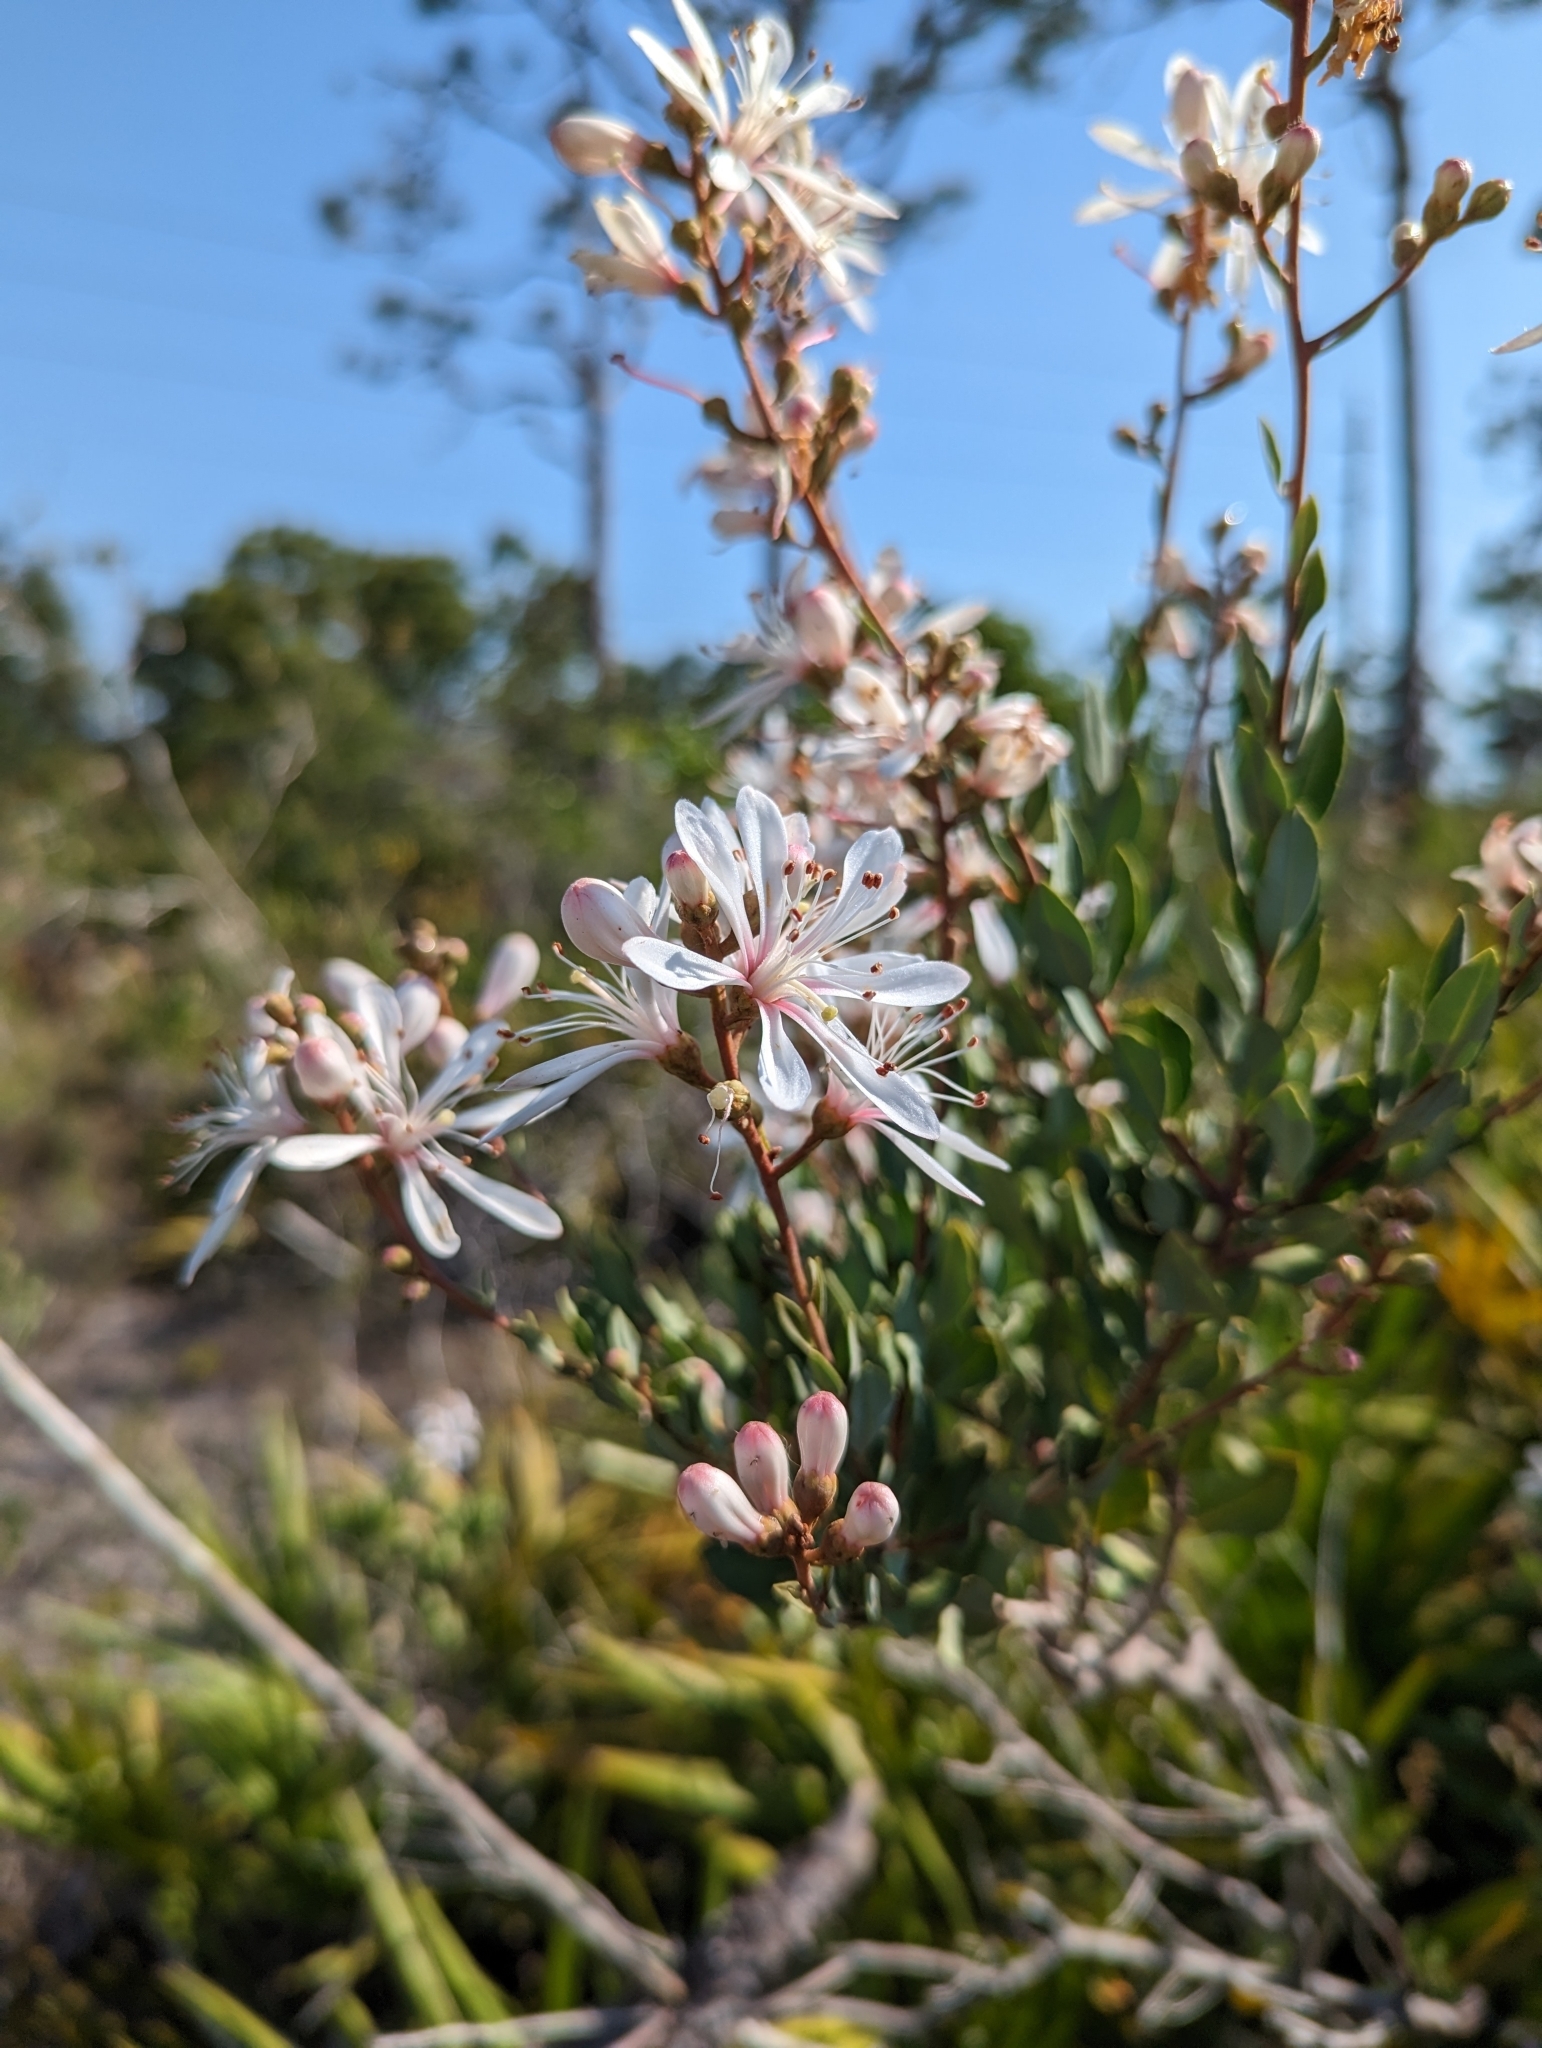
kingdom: Plantae
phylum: Tracheophyta
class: Magnoliopsida
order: Ericales
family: Ericaceae
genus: Bejaria
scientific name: Bejaria racemosa
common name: Tarflower
